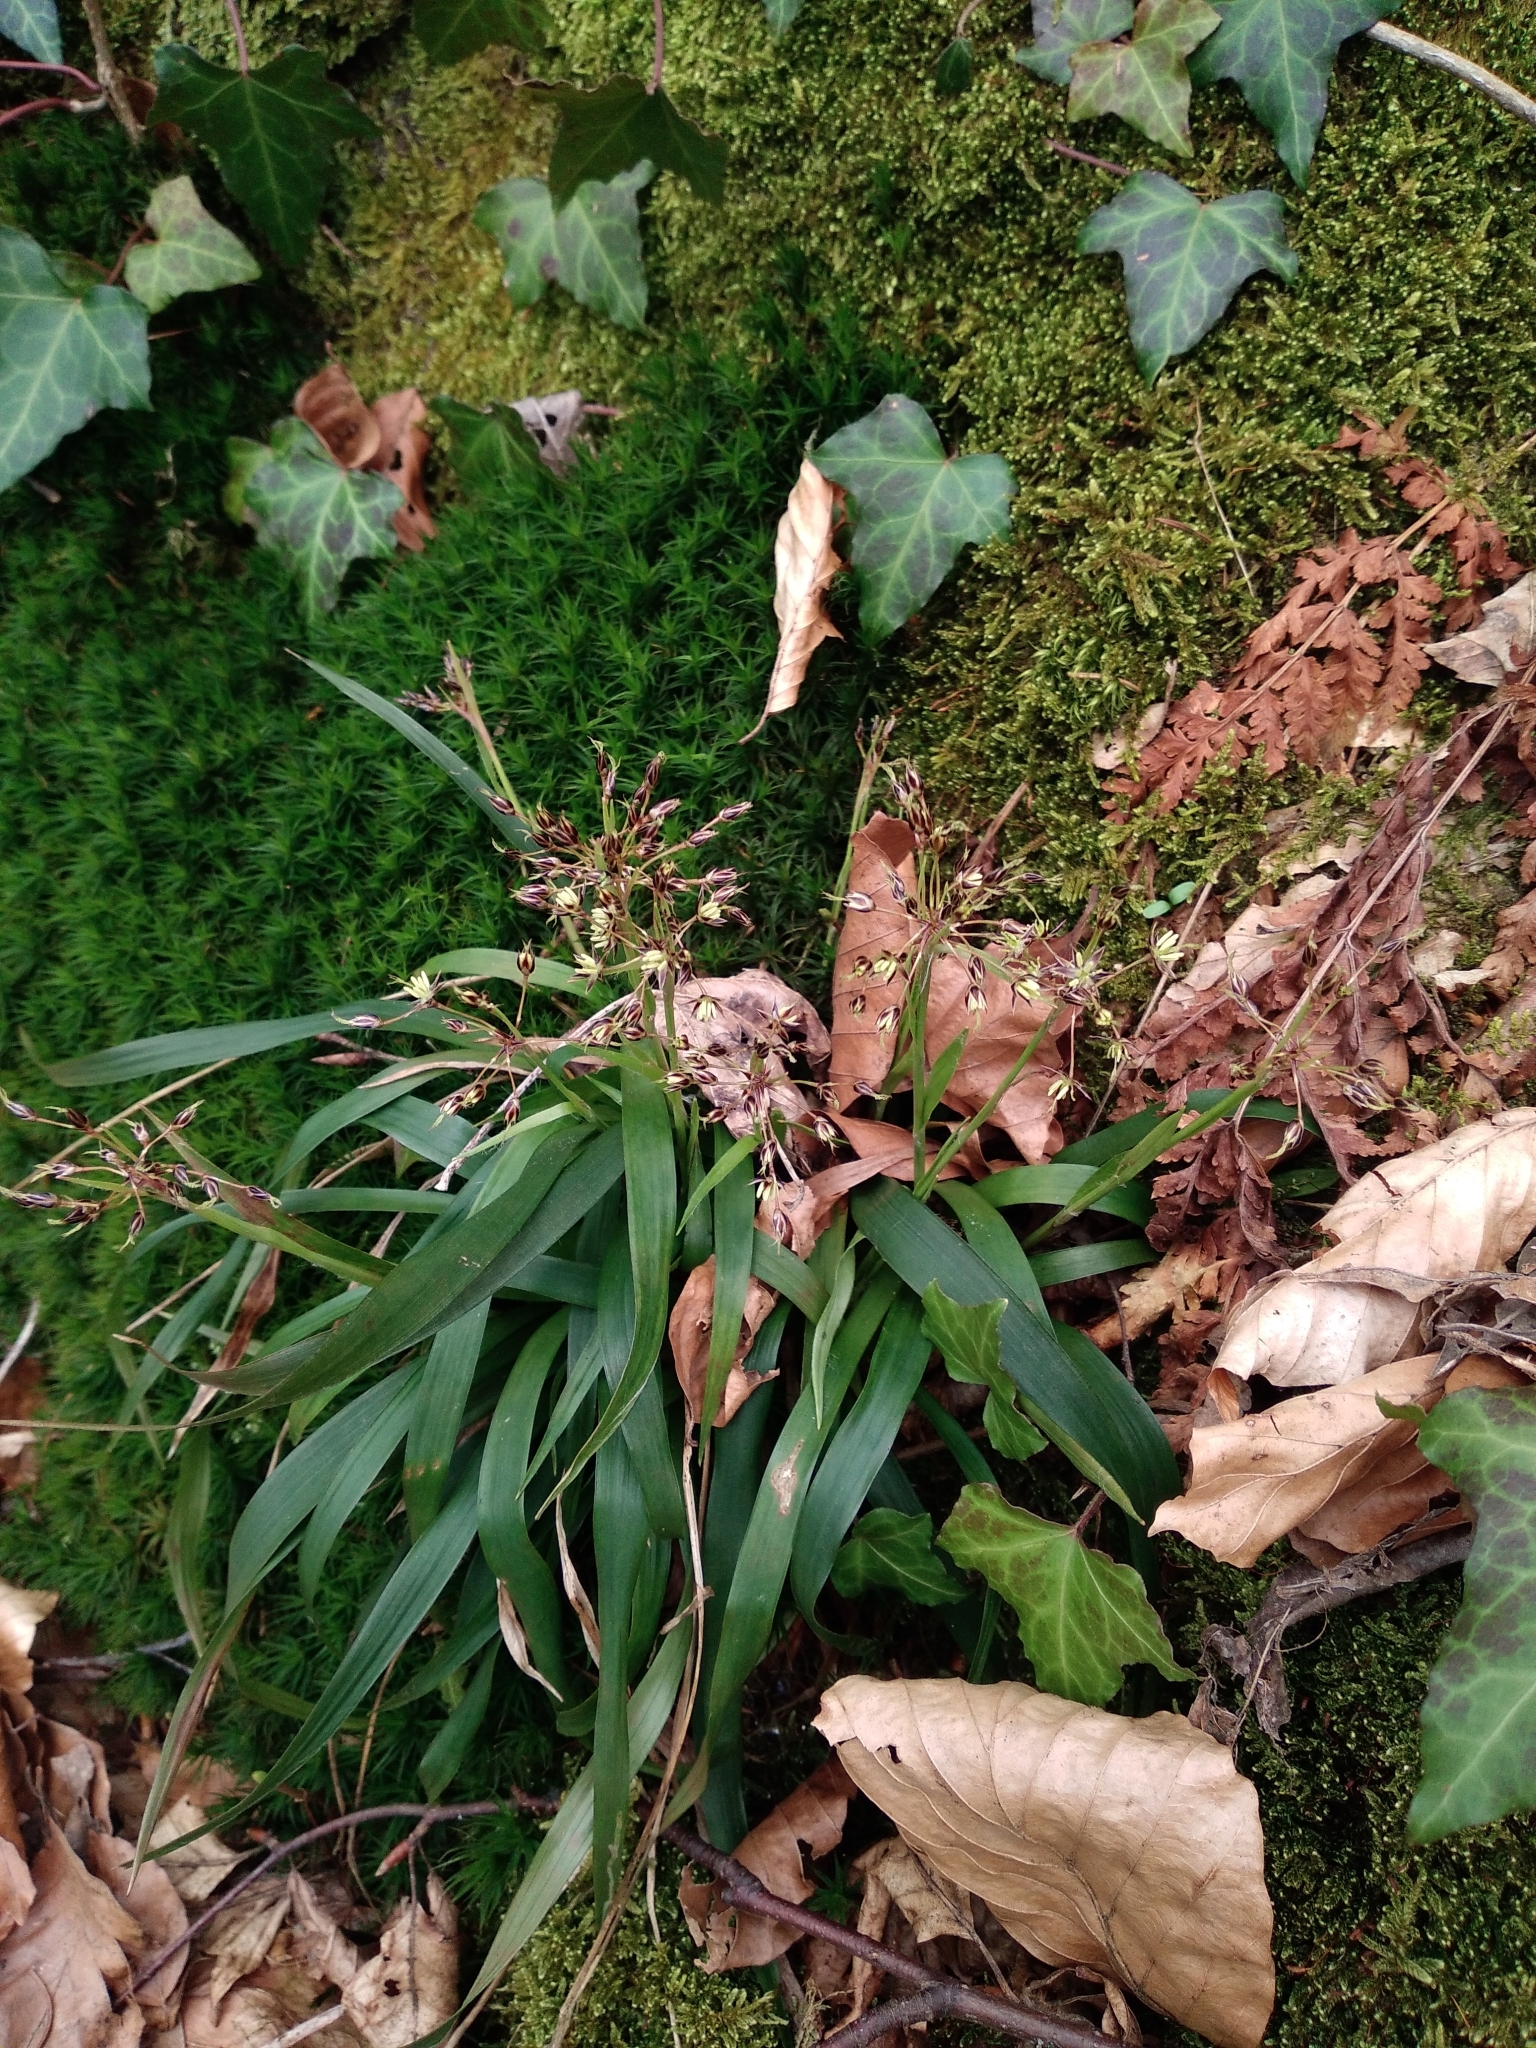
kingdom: Plantae
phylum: Tracheophyta
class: Liliopsida
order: Poales
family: Juncaceae
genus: Luzula
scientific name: Luzula pilosa
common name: Hairy wood-rush
